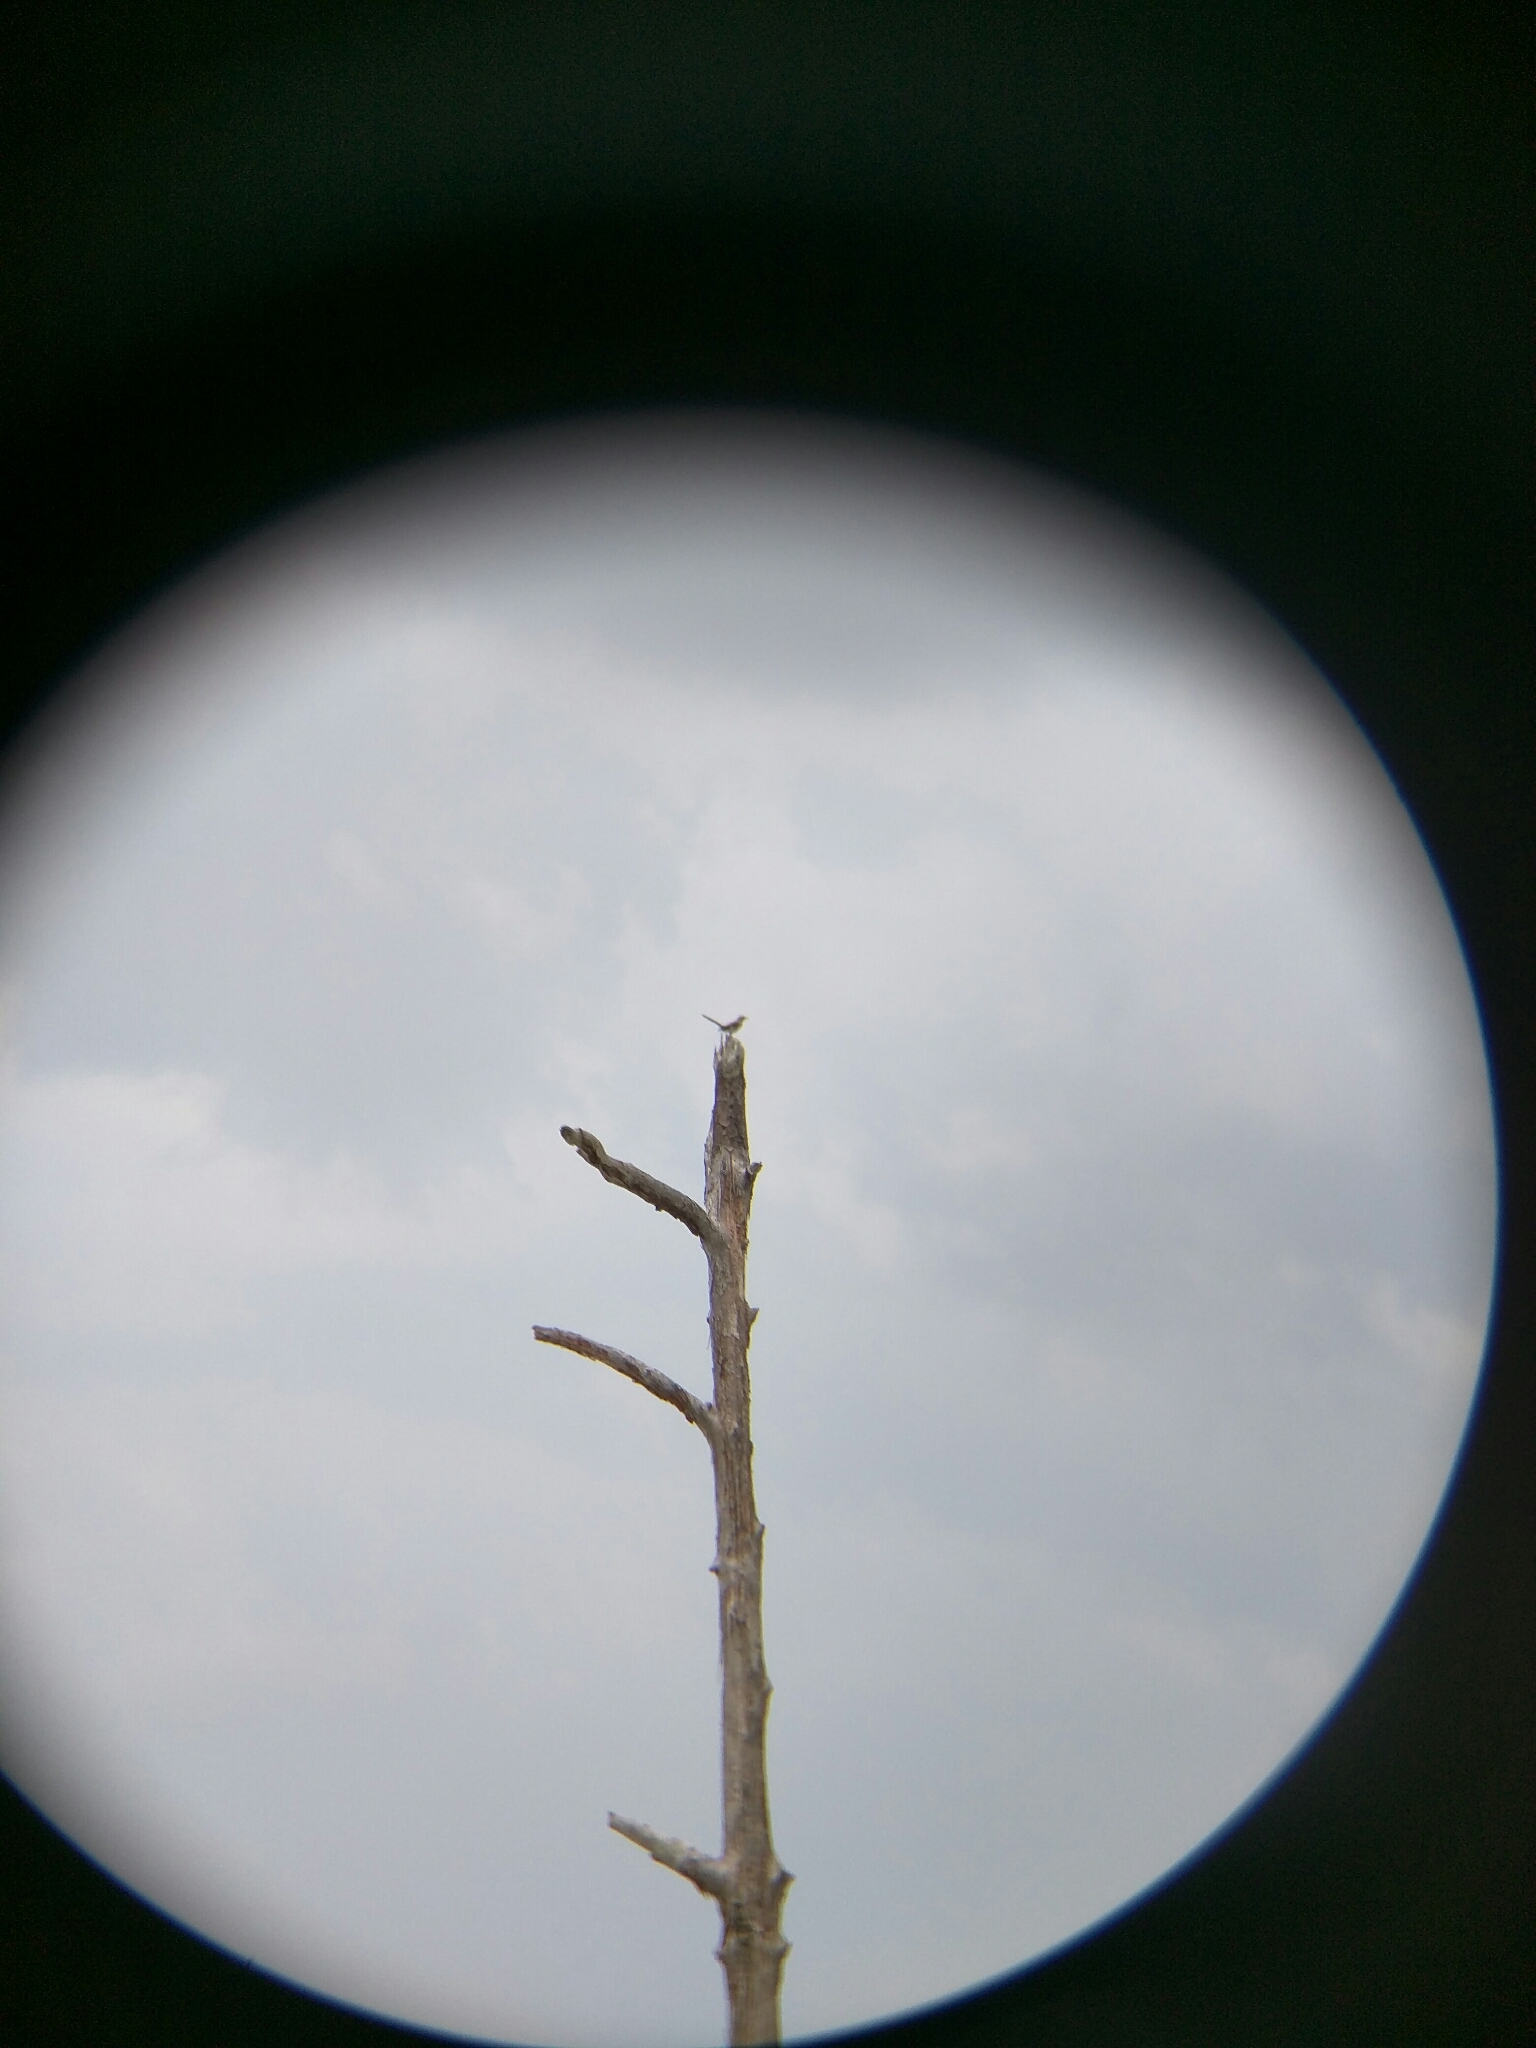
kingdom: Animalia
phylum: Chordata
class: Aves
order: Passeriformes
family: Mimidae
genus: Mimus
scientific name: Mimus polyglottos
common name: Northern mockingbird
